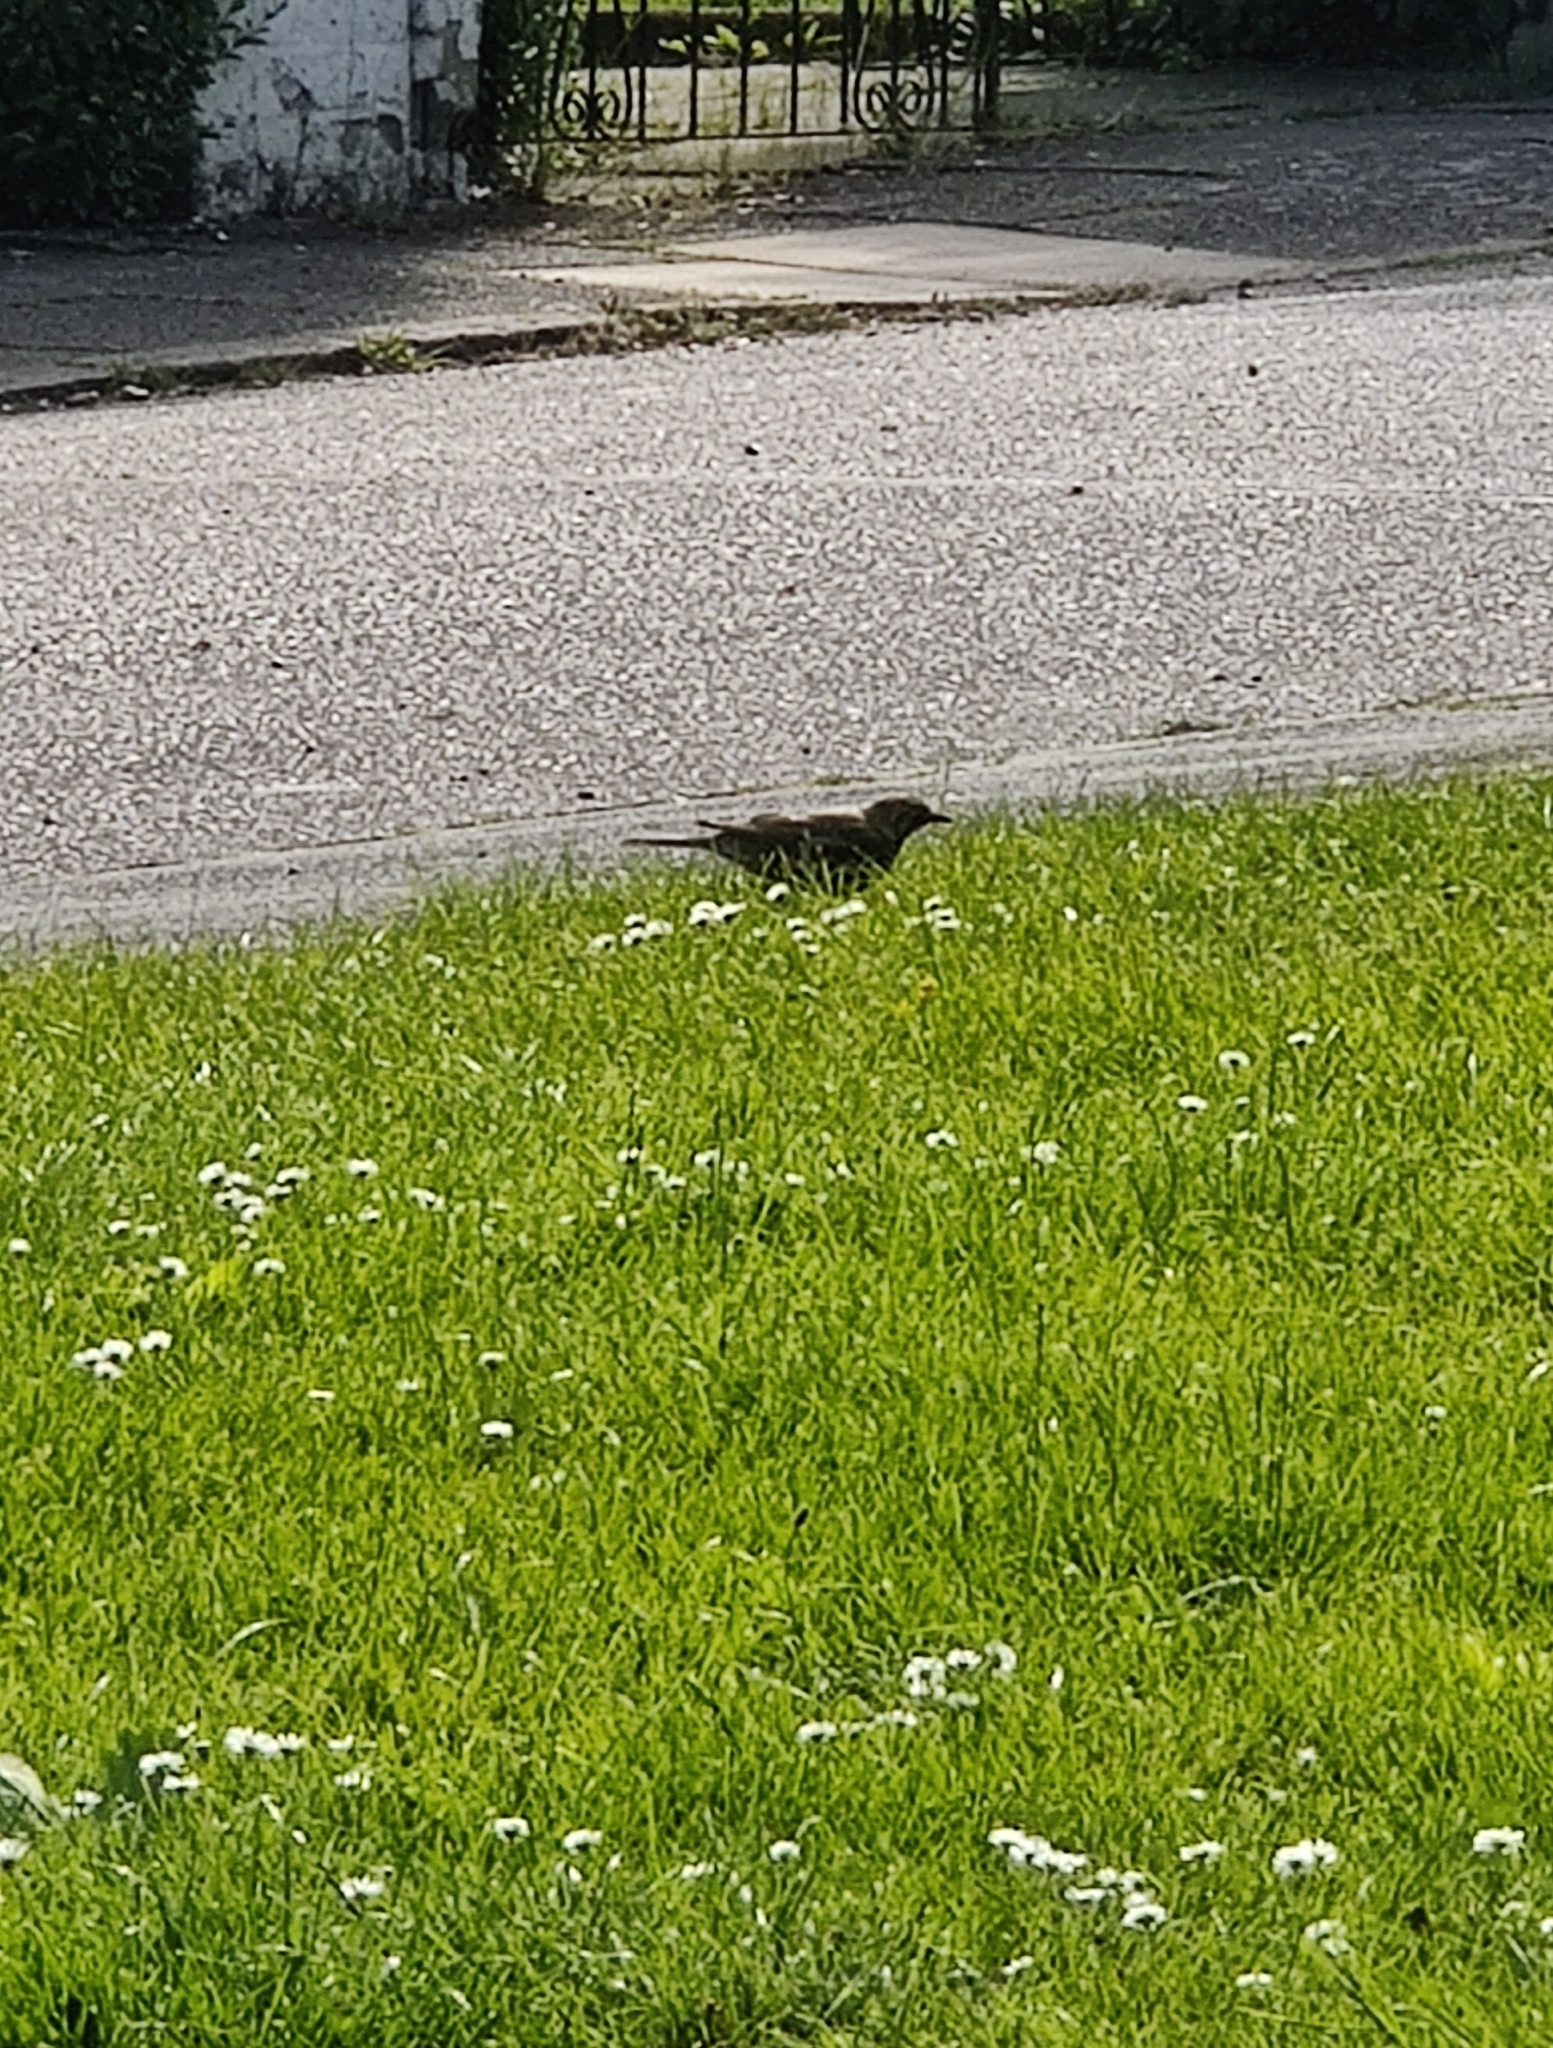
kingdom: Animalia
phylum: Chordata
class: Aves
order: Passeriformes
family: Turdidae
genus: Turdus
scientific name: Turdus viscivorus
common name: Mistle thrush
